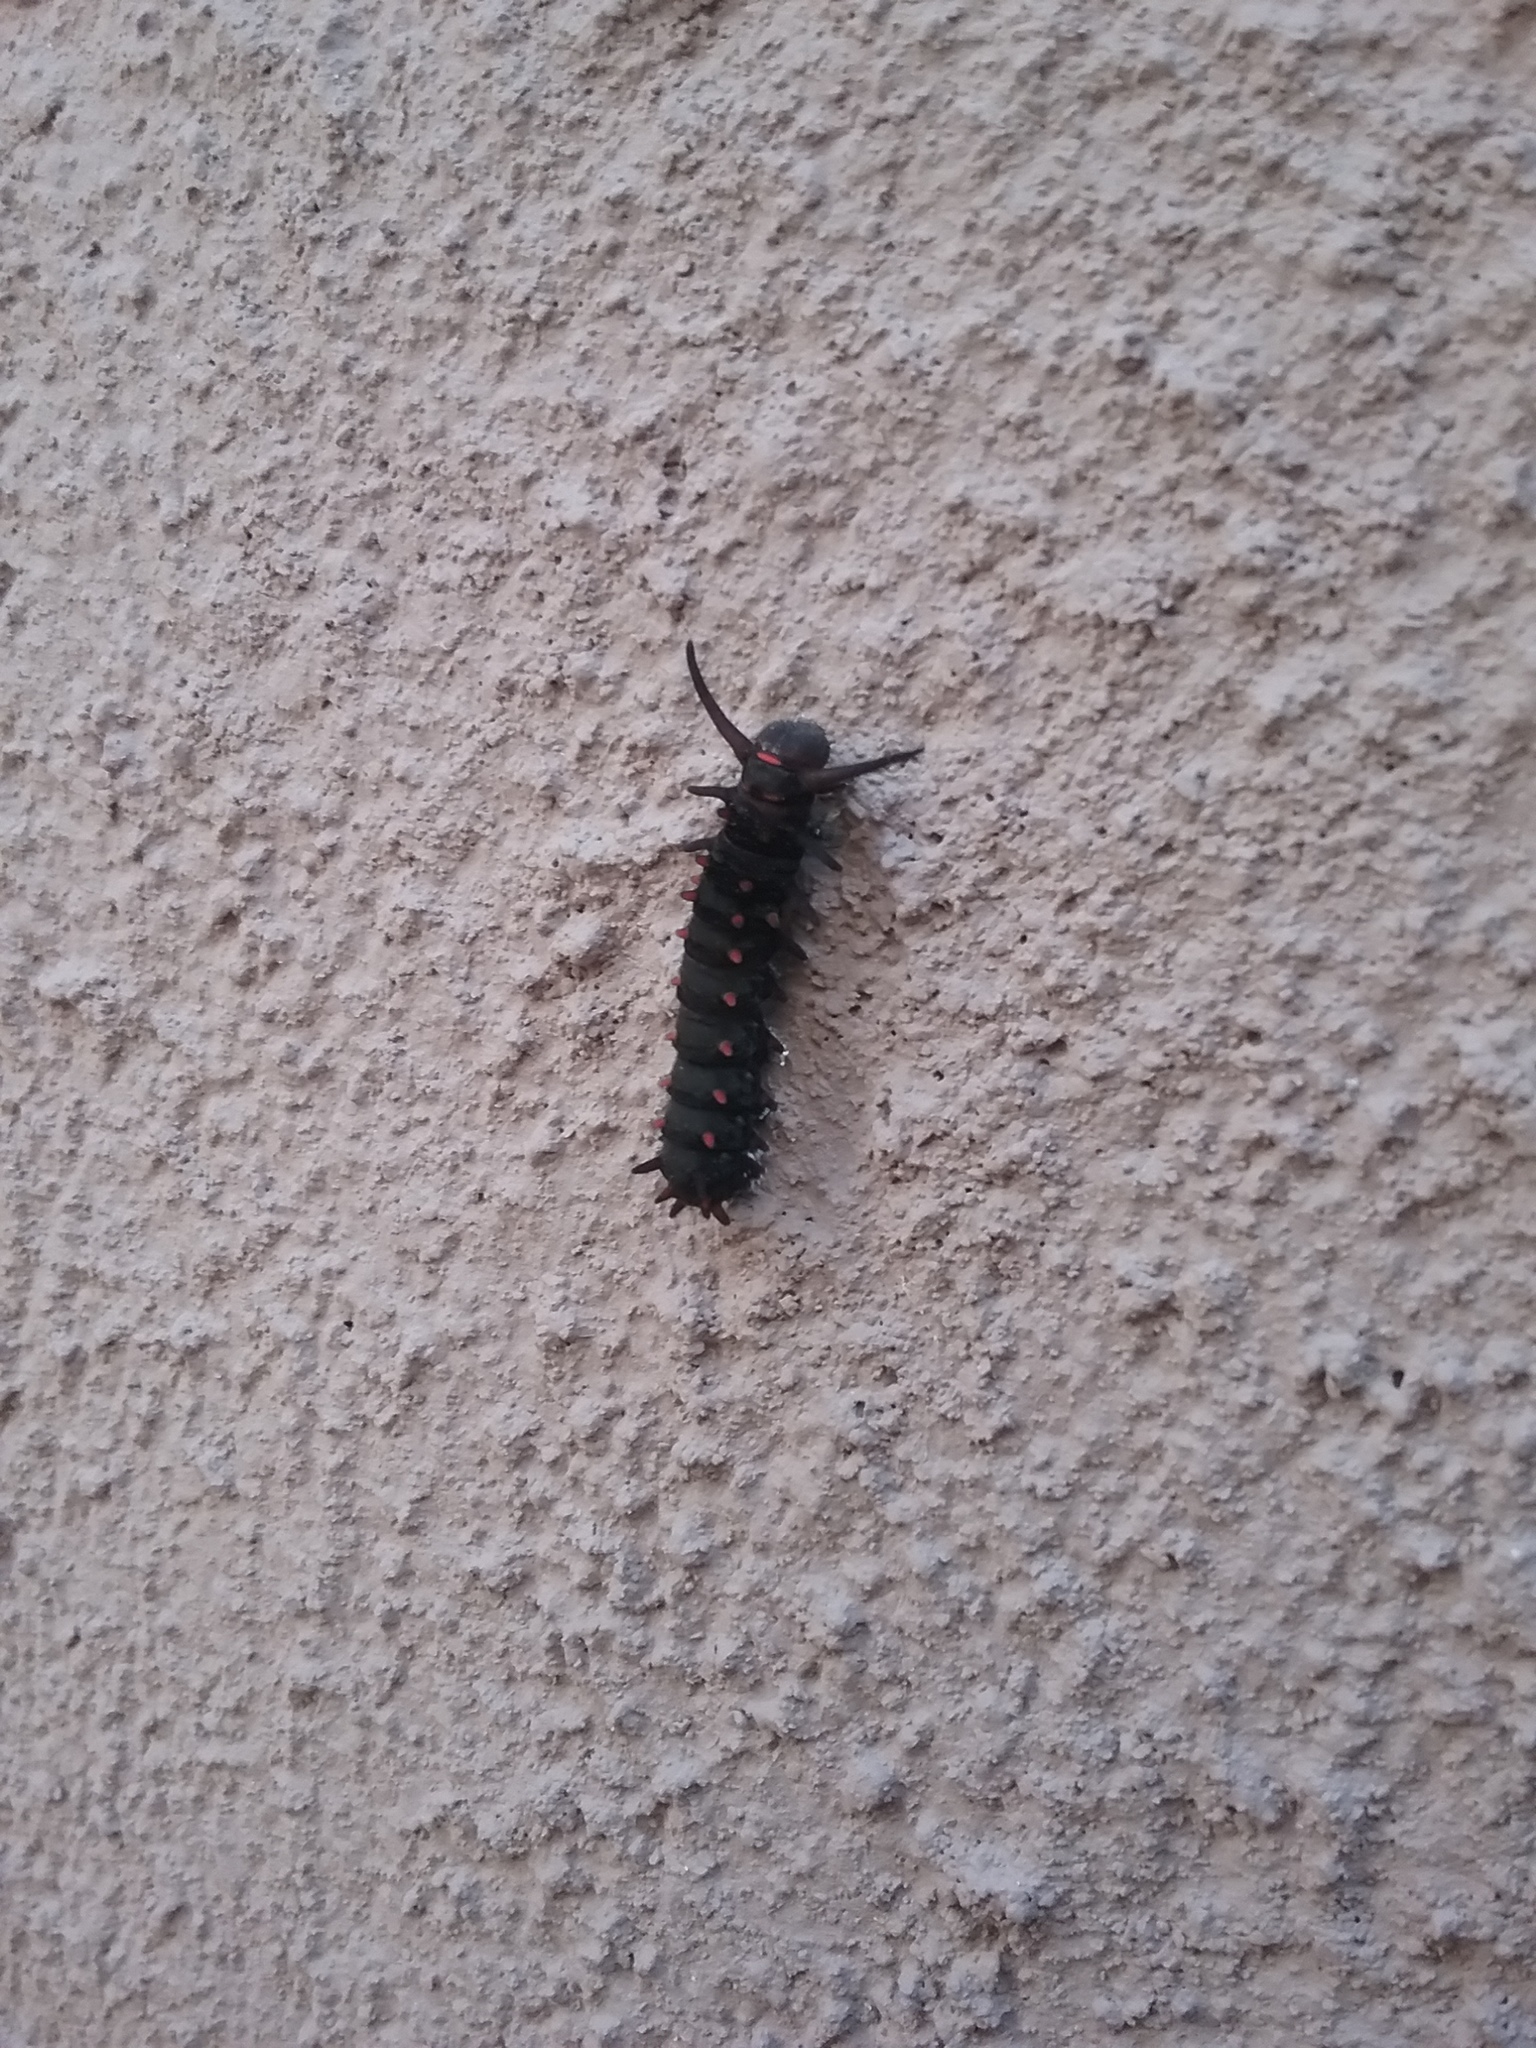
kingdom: Animalia
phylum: Arthropoda
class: Insecta
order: Lepidoptera
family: Papilionidae
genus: Battus
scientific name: Battus philenor
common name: Pipevine swallowtail
